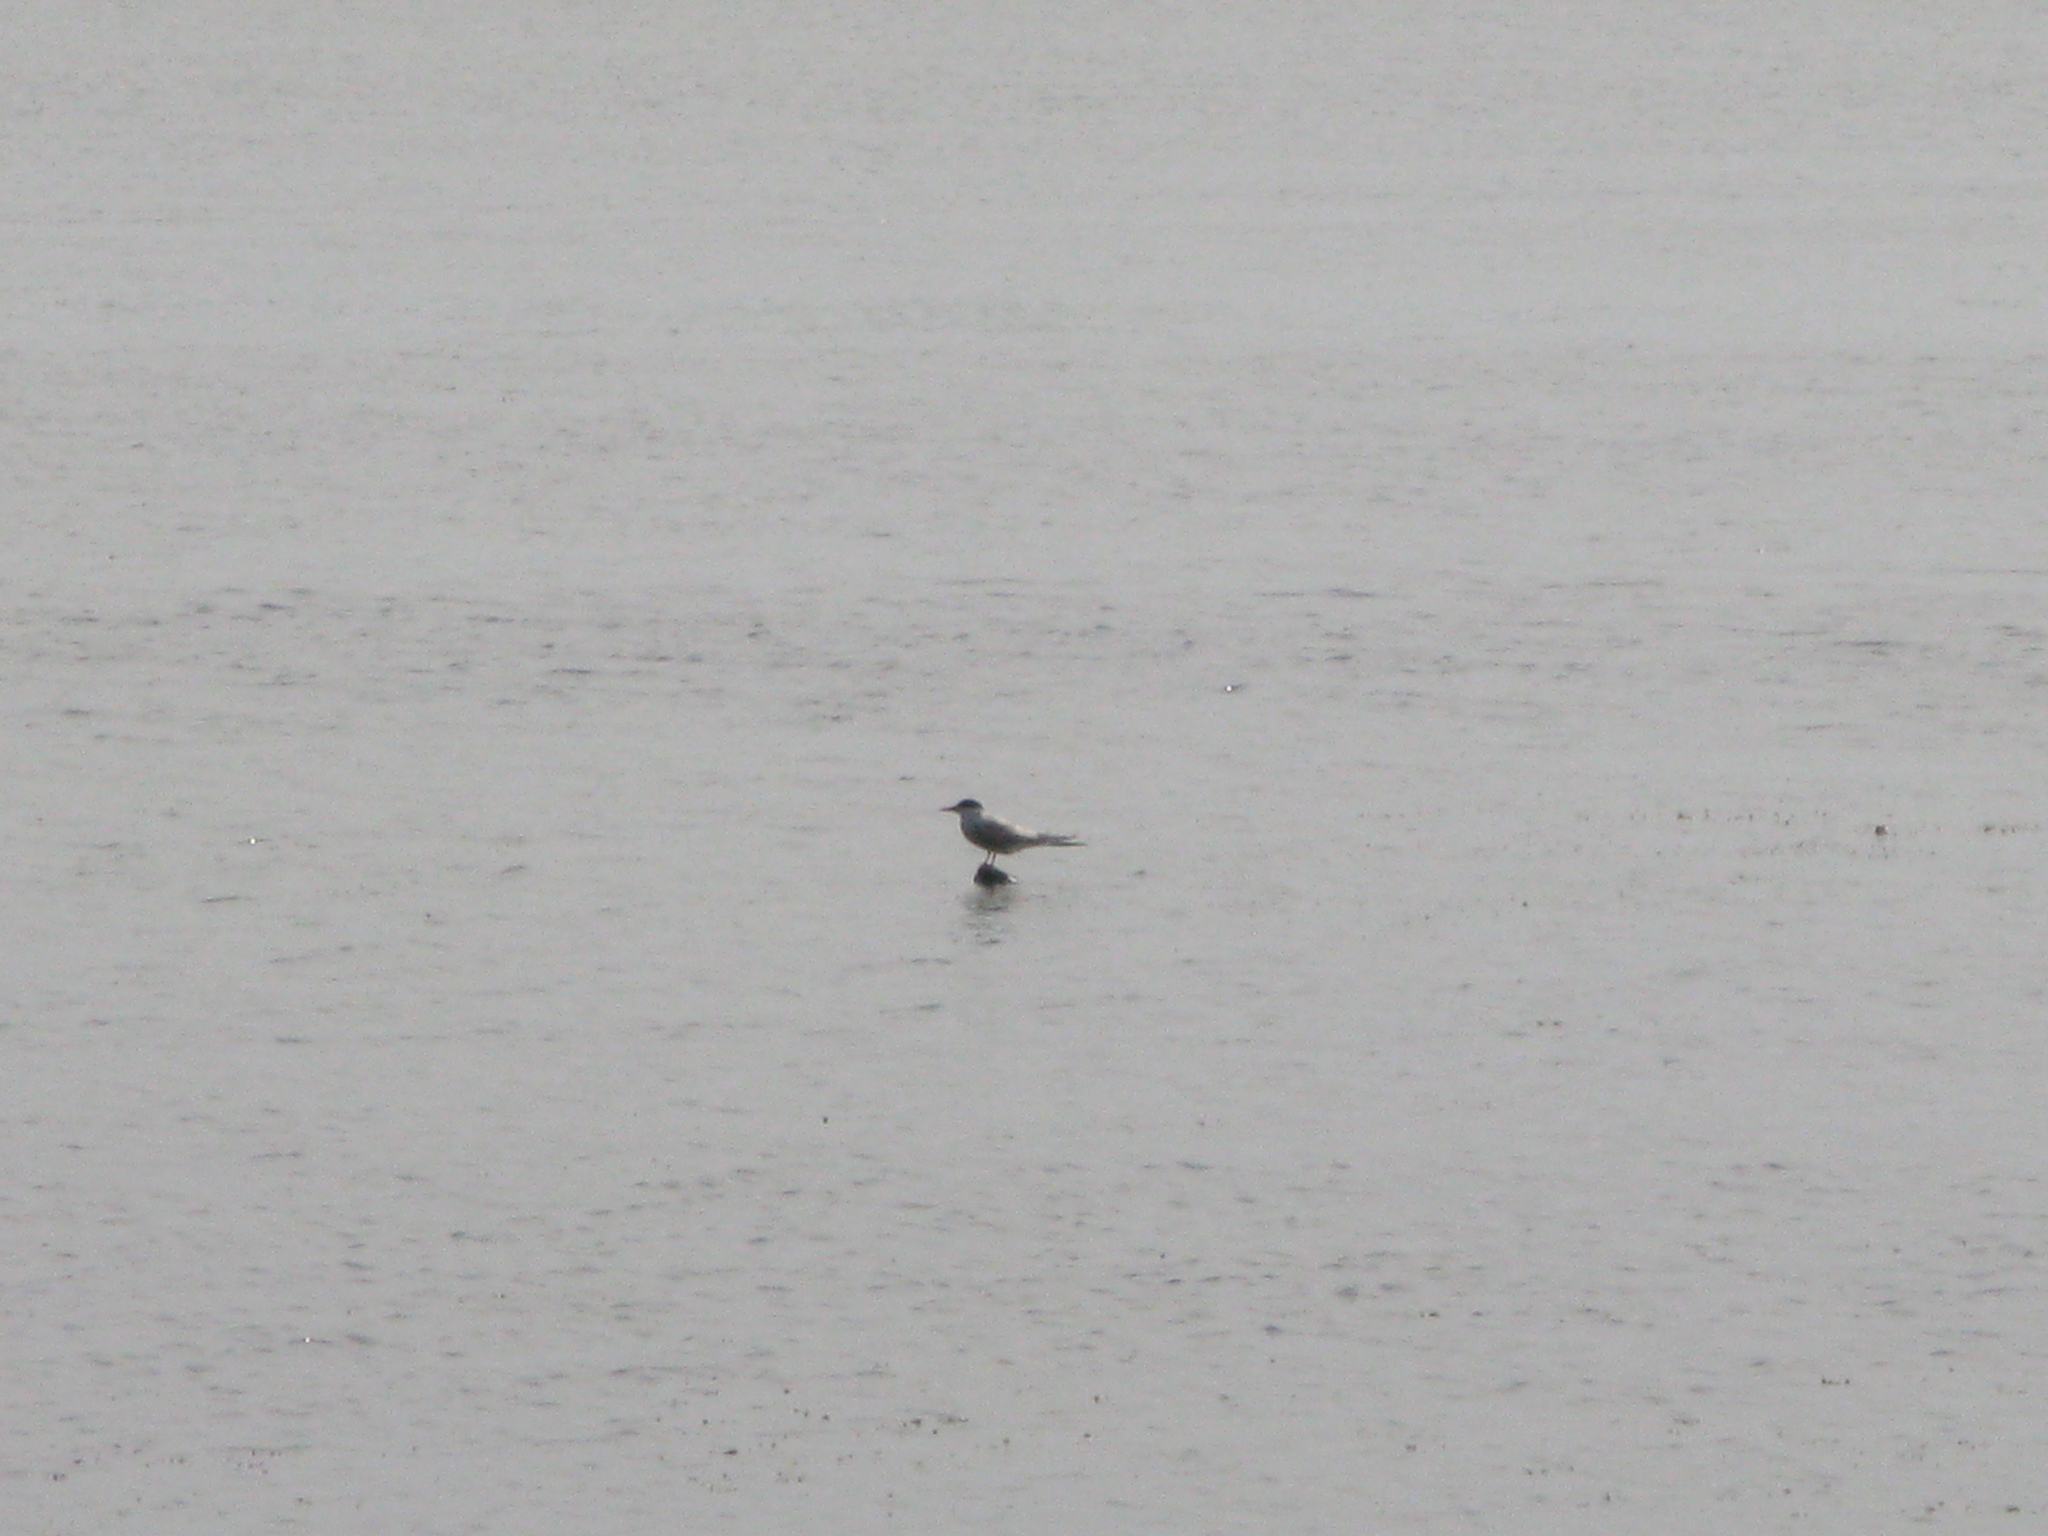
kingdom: Animalia
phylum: Chordata
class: Aves
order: Charadriiformes
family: Laridae
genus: Sterna
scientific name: Sterna hirundo
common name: Common tern
